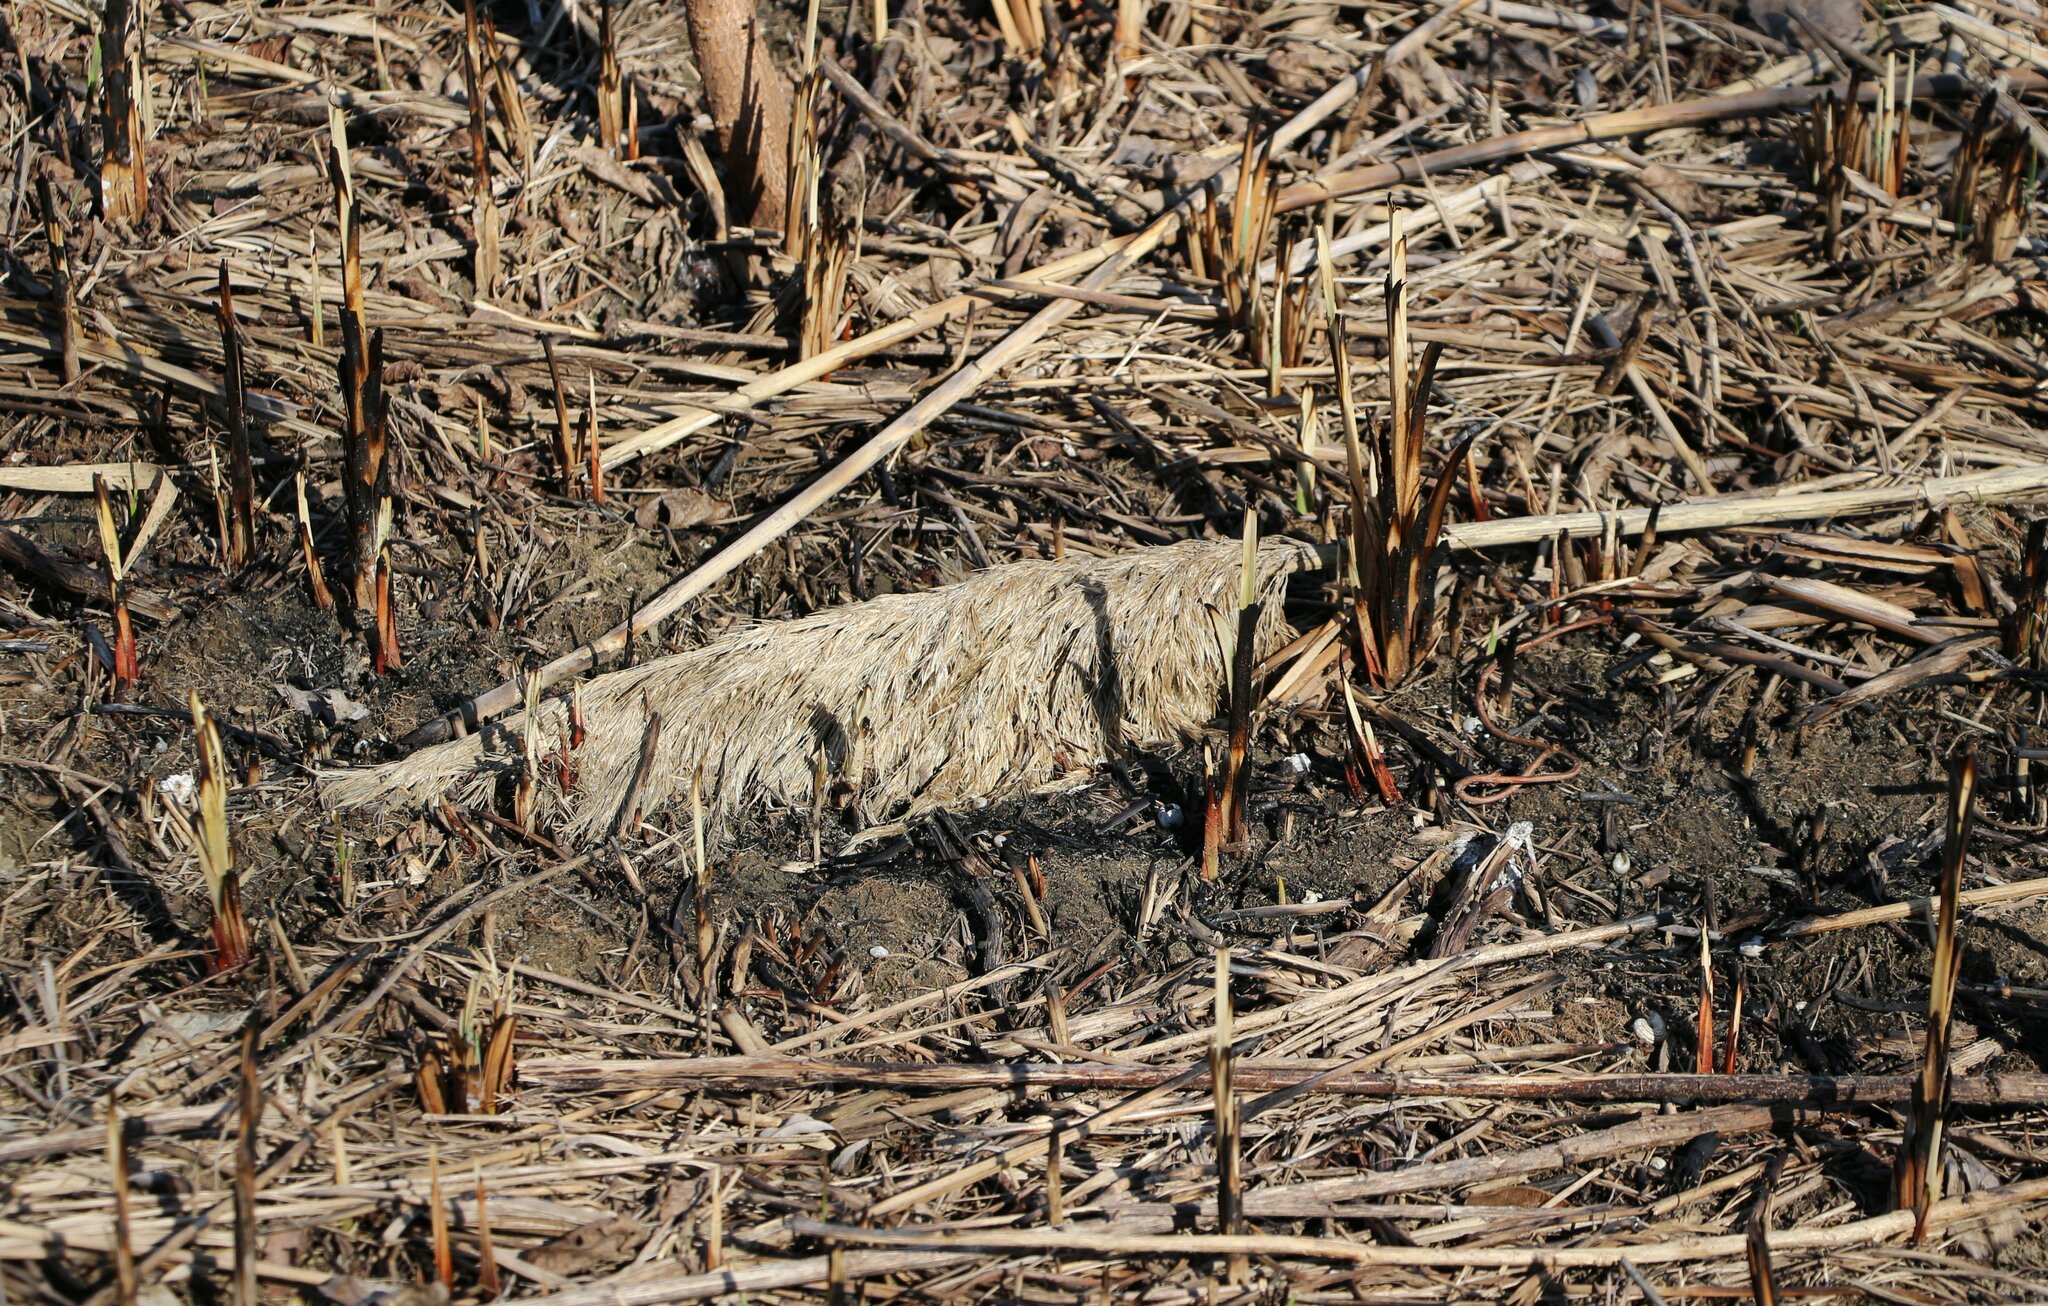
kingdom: Plantae
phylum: Tracheophyta
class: Liliopsida
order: Poales
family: Poaceae
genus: Phragmites
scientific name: Phragmites australis
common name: Common reed
